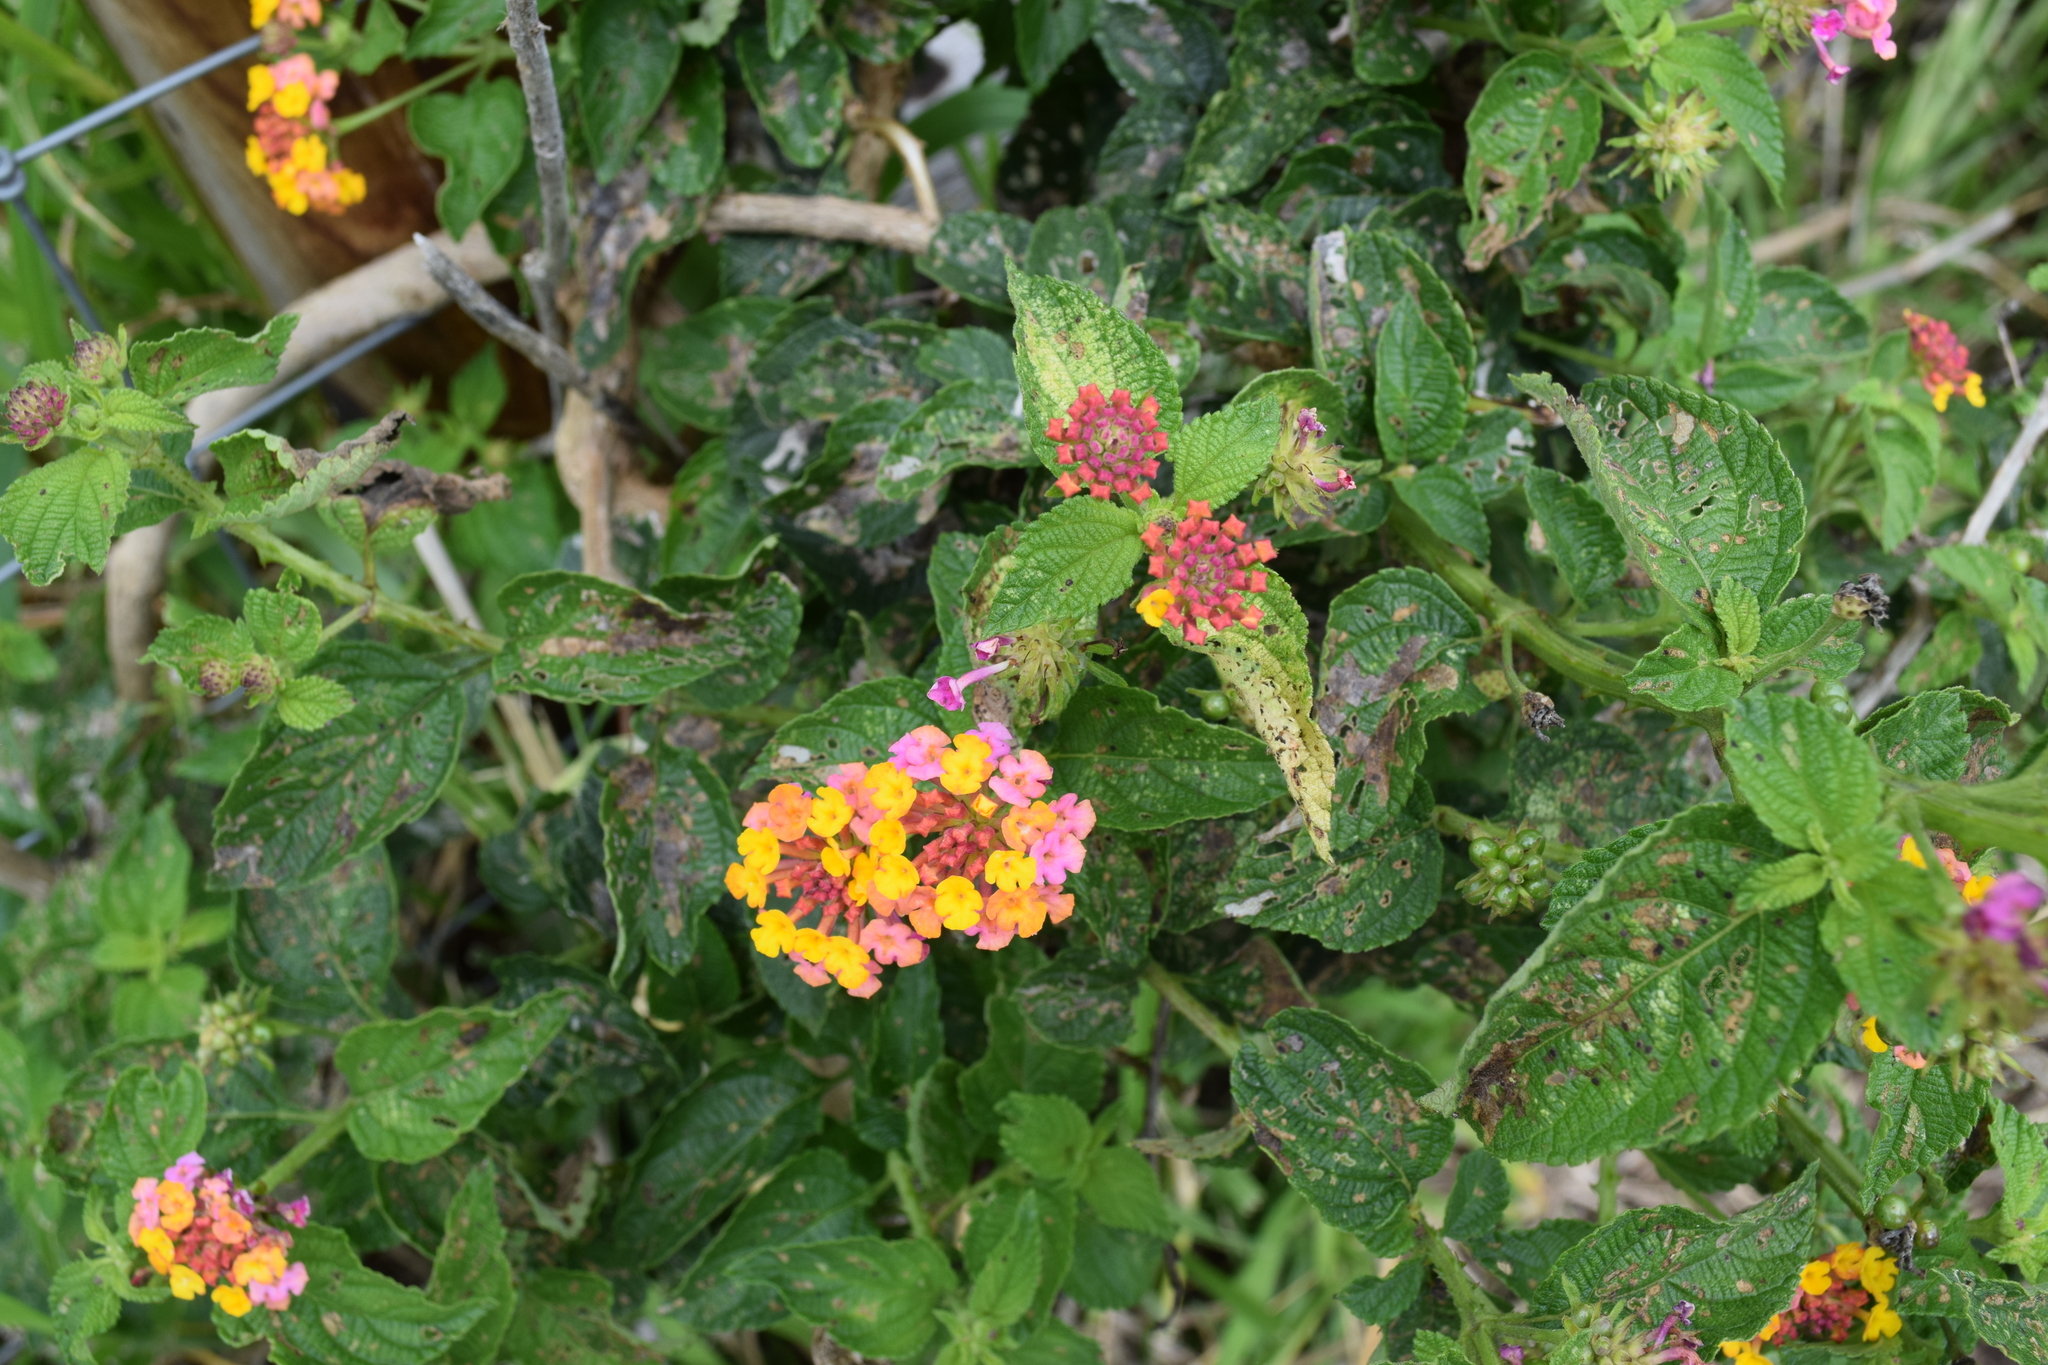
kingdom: Plantae
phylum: Tracheophyta
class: Magnoliopsida
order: Lamiales
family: Verbenaceae
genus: Lantana
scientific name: Lantana camara
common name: Lantana
